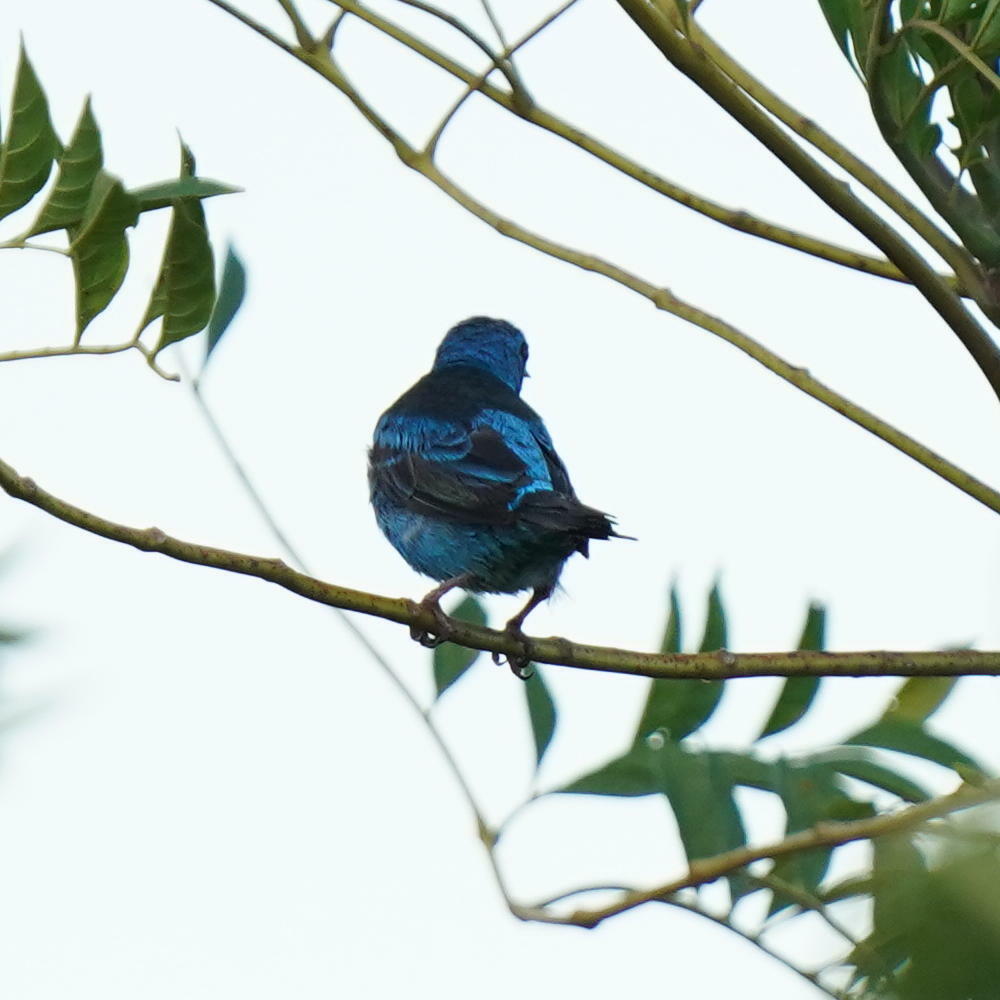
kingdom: Animalia
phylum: Chordata
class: Aves
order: Passeriformes
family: Thraupidae
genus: Dacnis
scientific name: Dacnis cayana
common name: Blue dacnis
